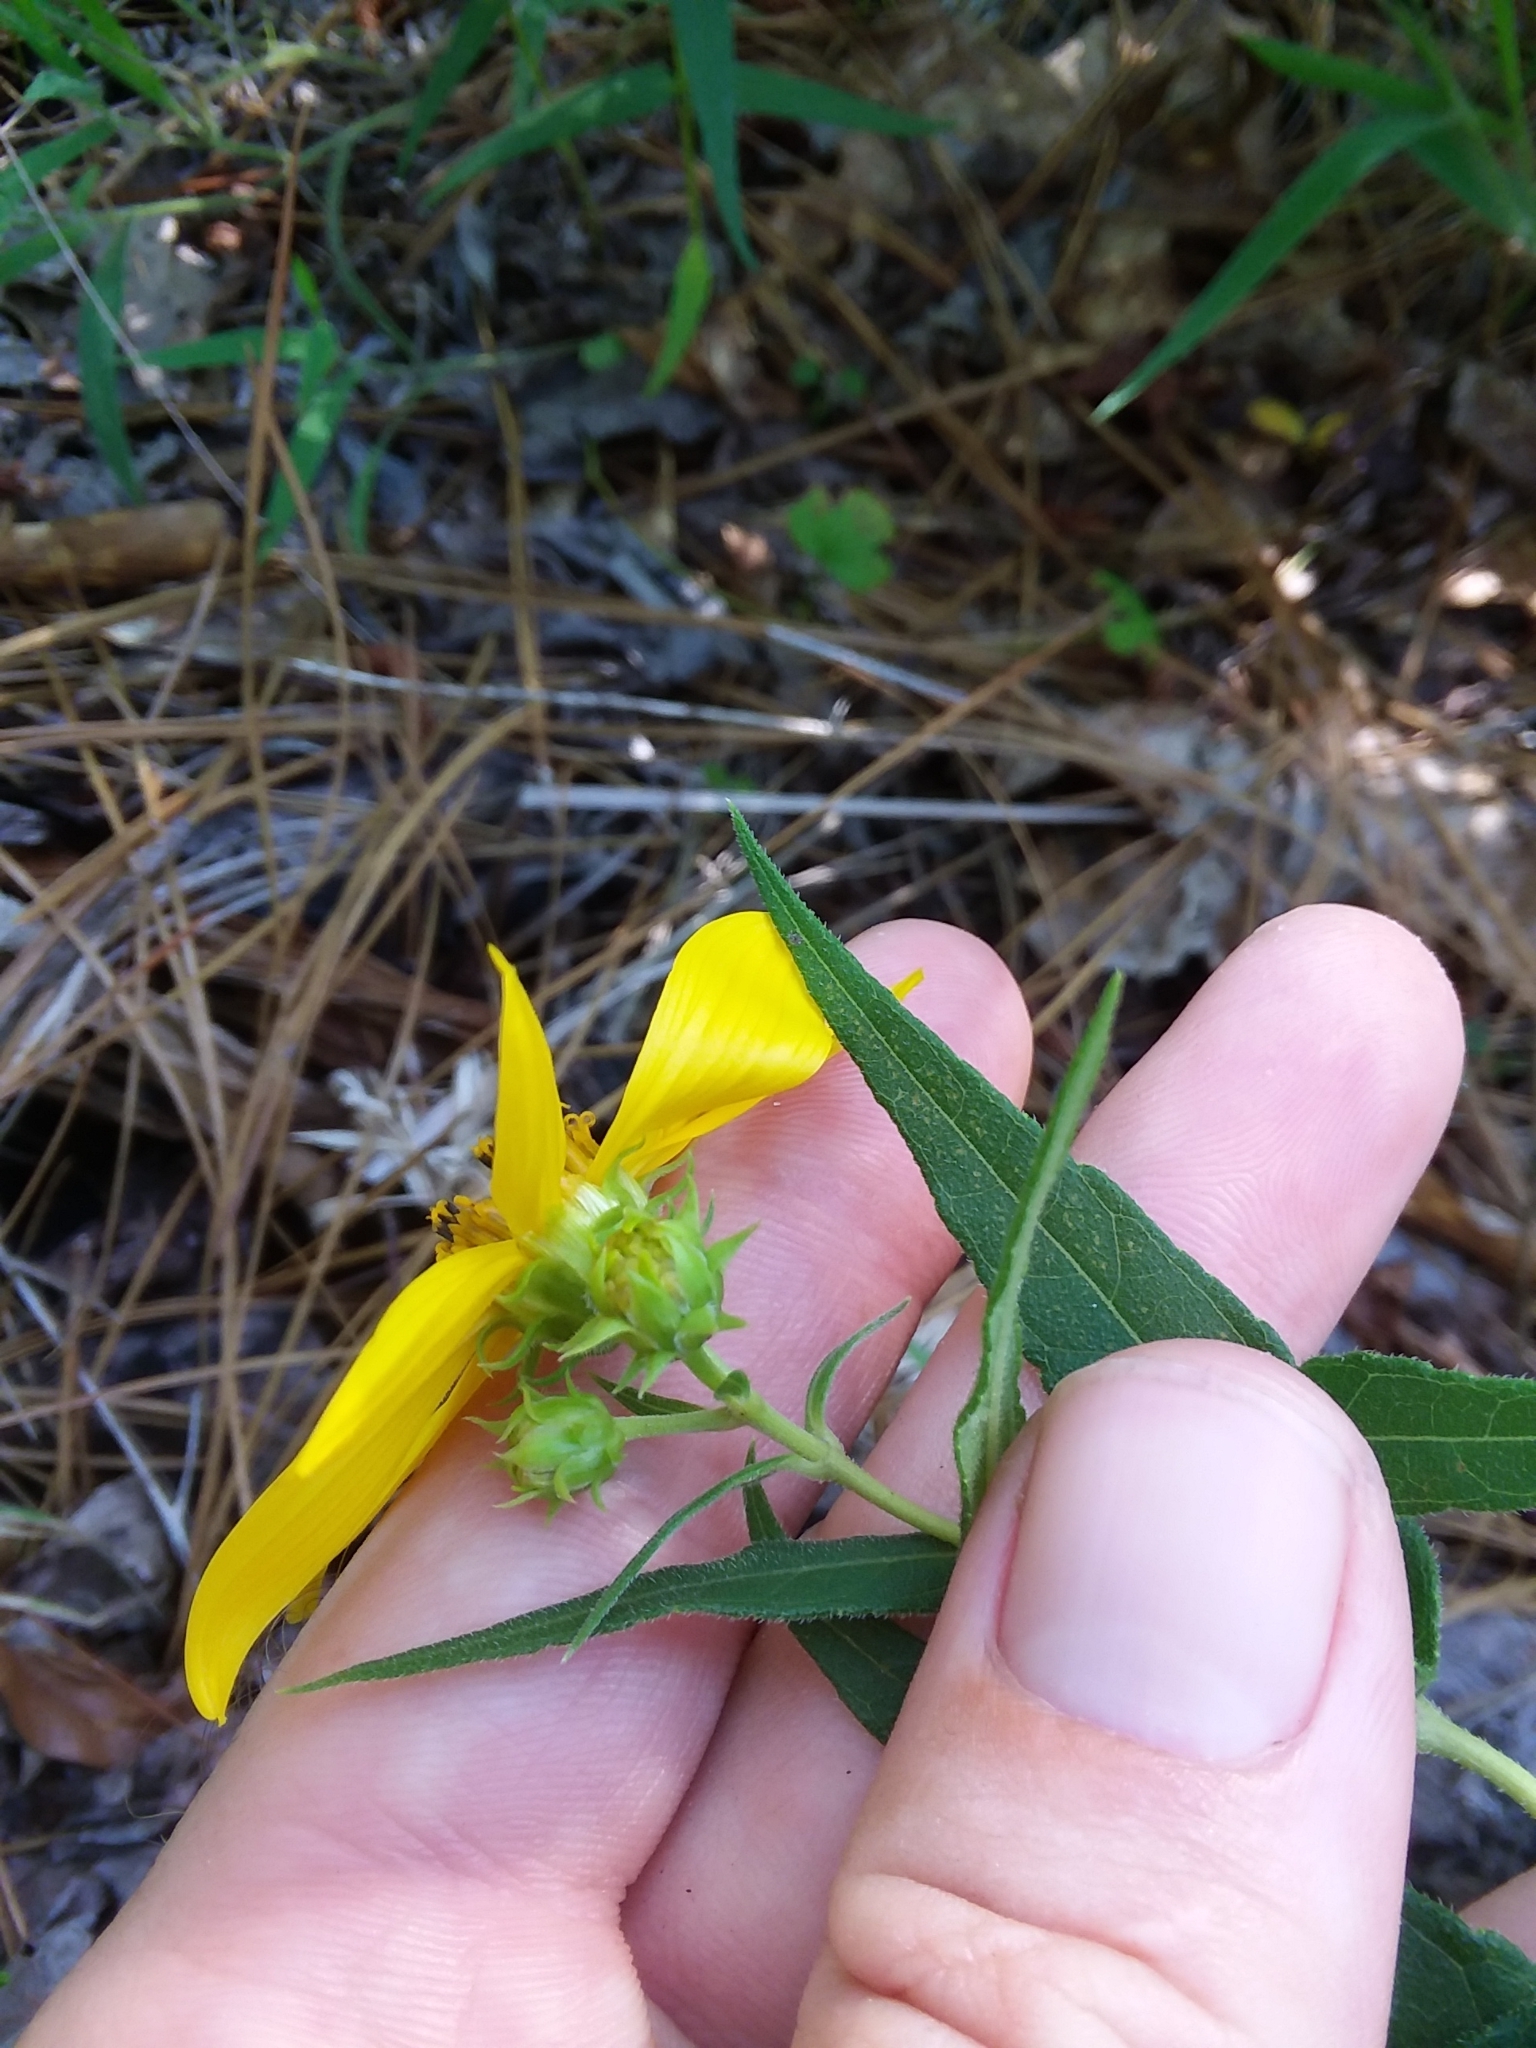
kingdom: Plantae
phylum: Tracheophyta
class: Magnoliopsida
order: Asterales
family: Asteraceae
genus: Helianthus
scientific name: Helianthus divaricatus
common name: Divergent sunflower
